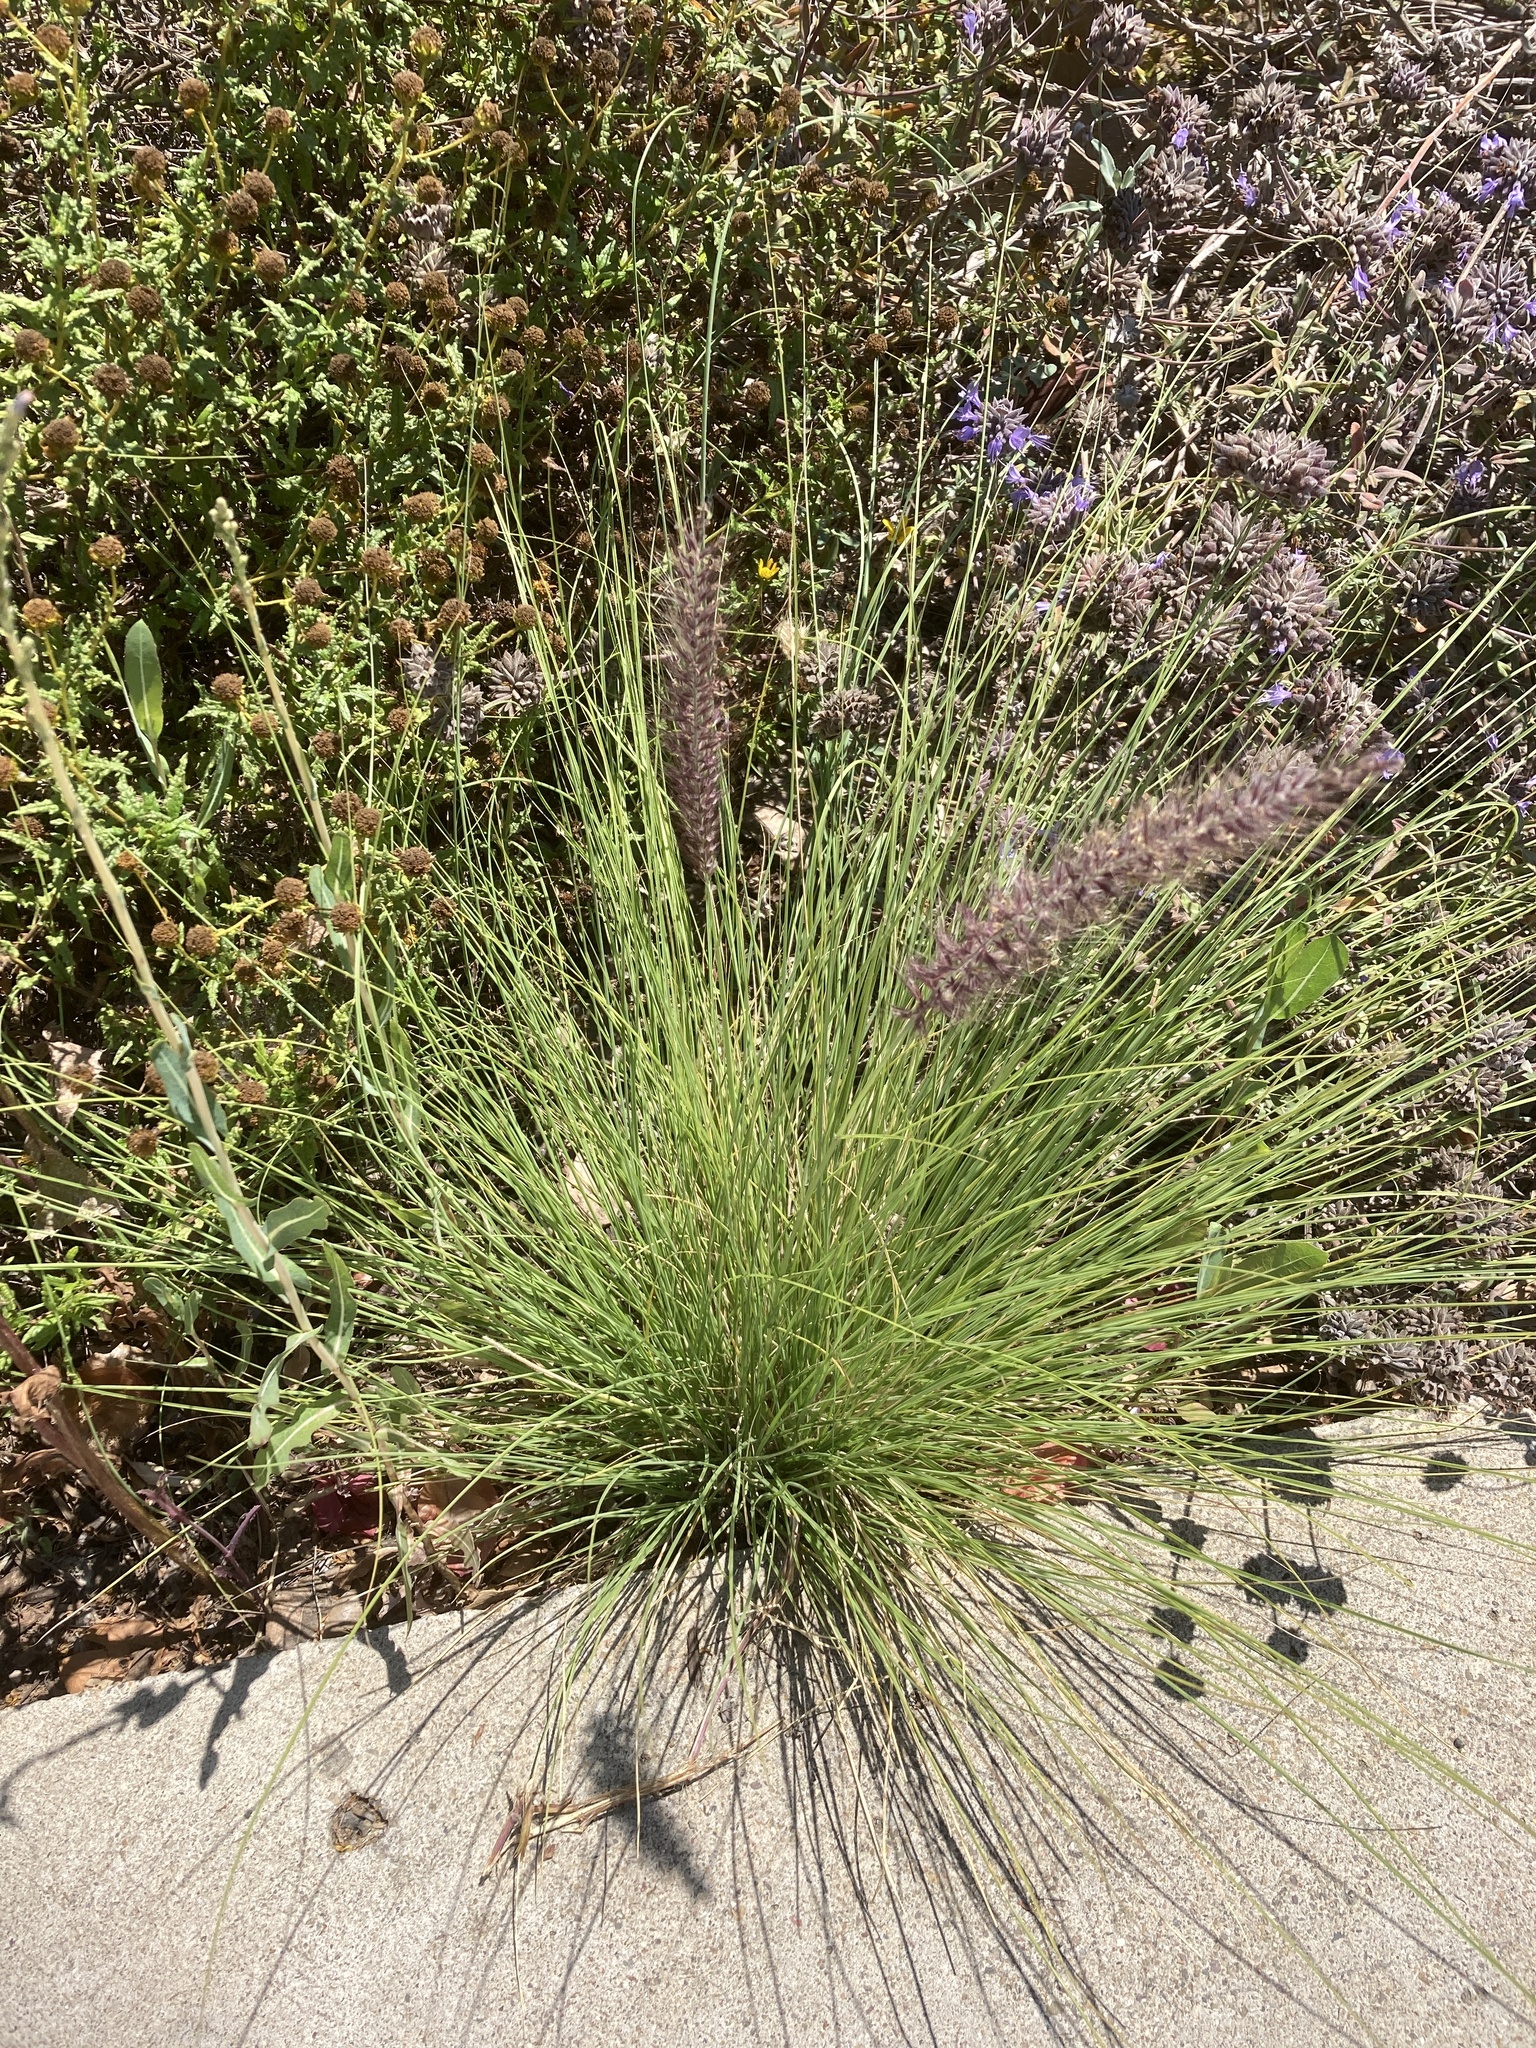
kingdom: Plantae
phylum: Tracheophyta
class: Liliopsida
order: Poales
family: Poaceae
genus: Cenchrus
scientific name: Cenchrus setaceus
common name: Crimson fountaingrass
